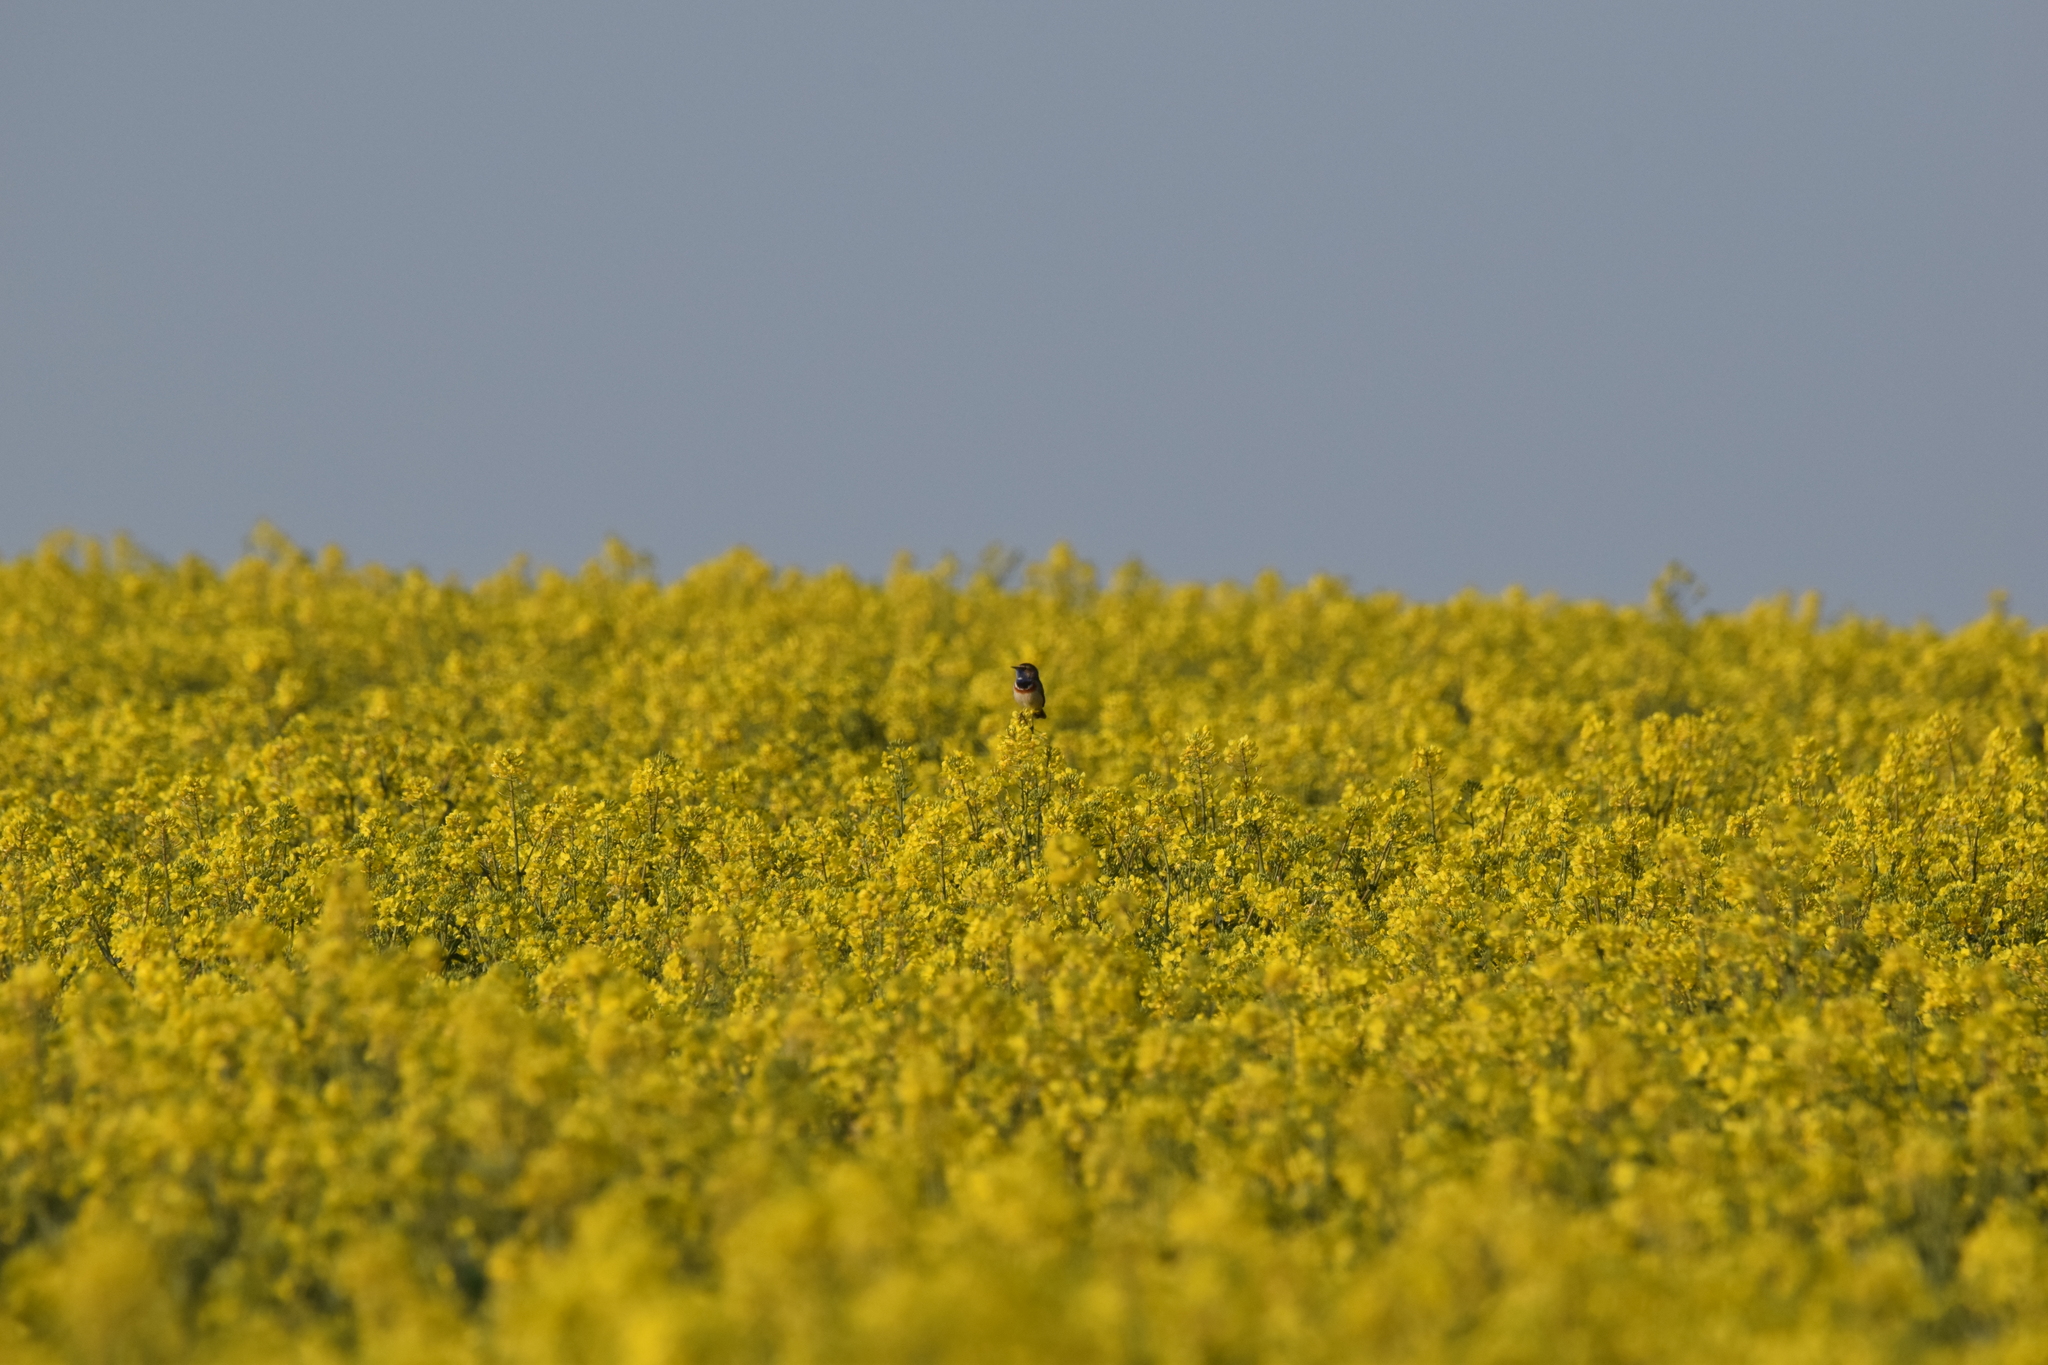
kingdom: Animalia
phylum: Chordata
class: Aves
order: Passeriformes
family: Muscicapidae
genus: Luscinia
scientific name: Luscinia svecica
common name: Bluethroat
